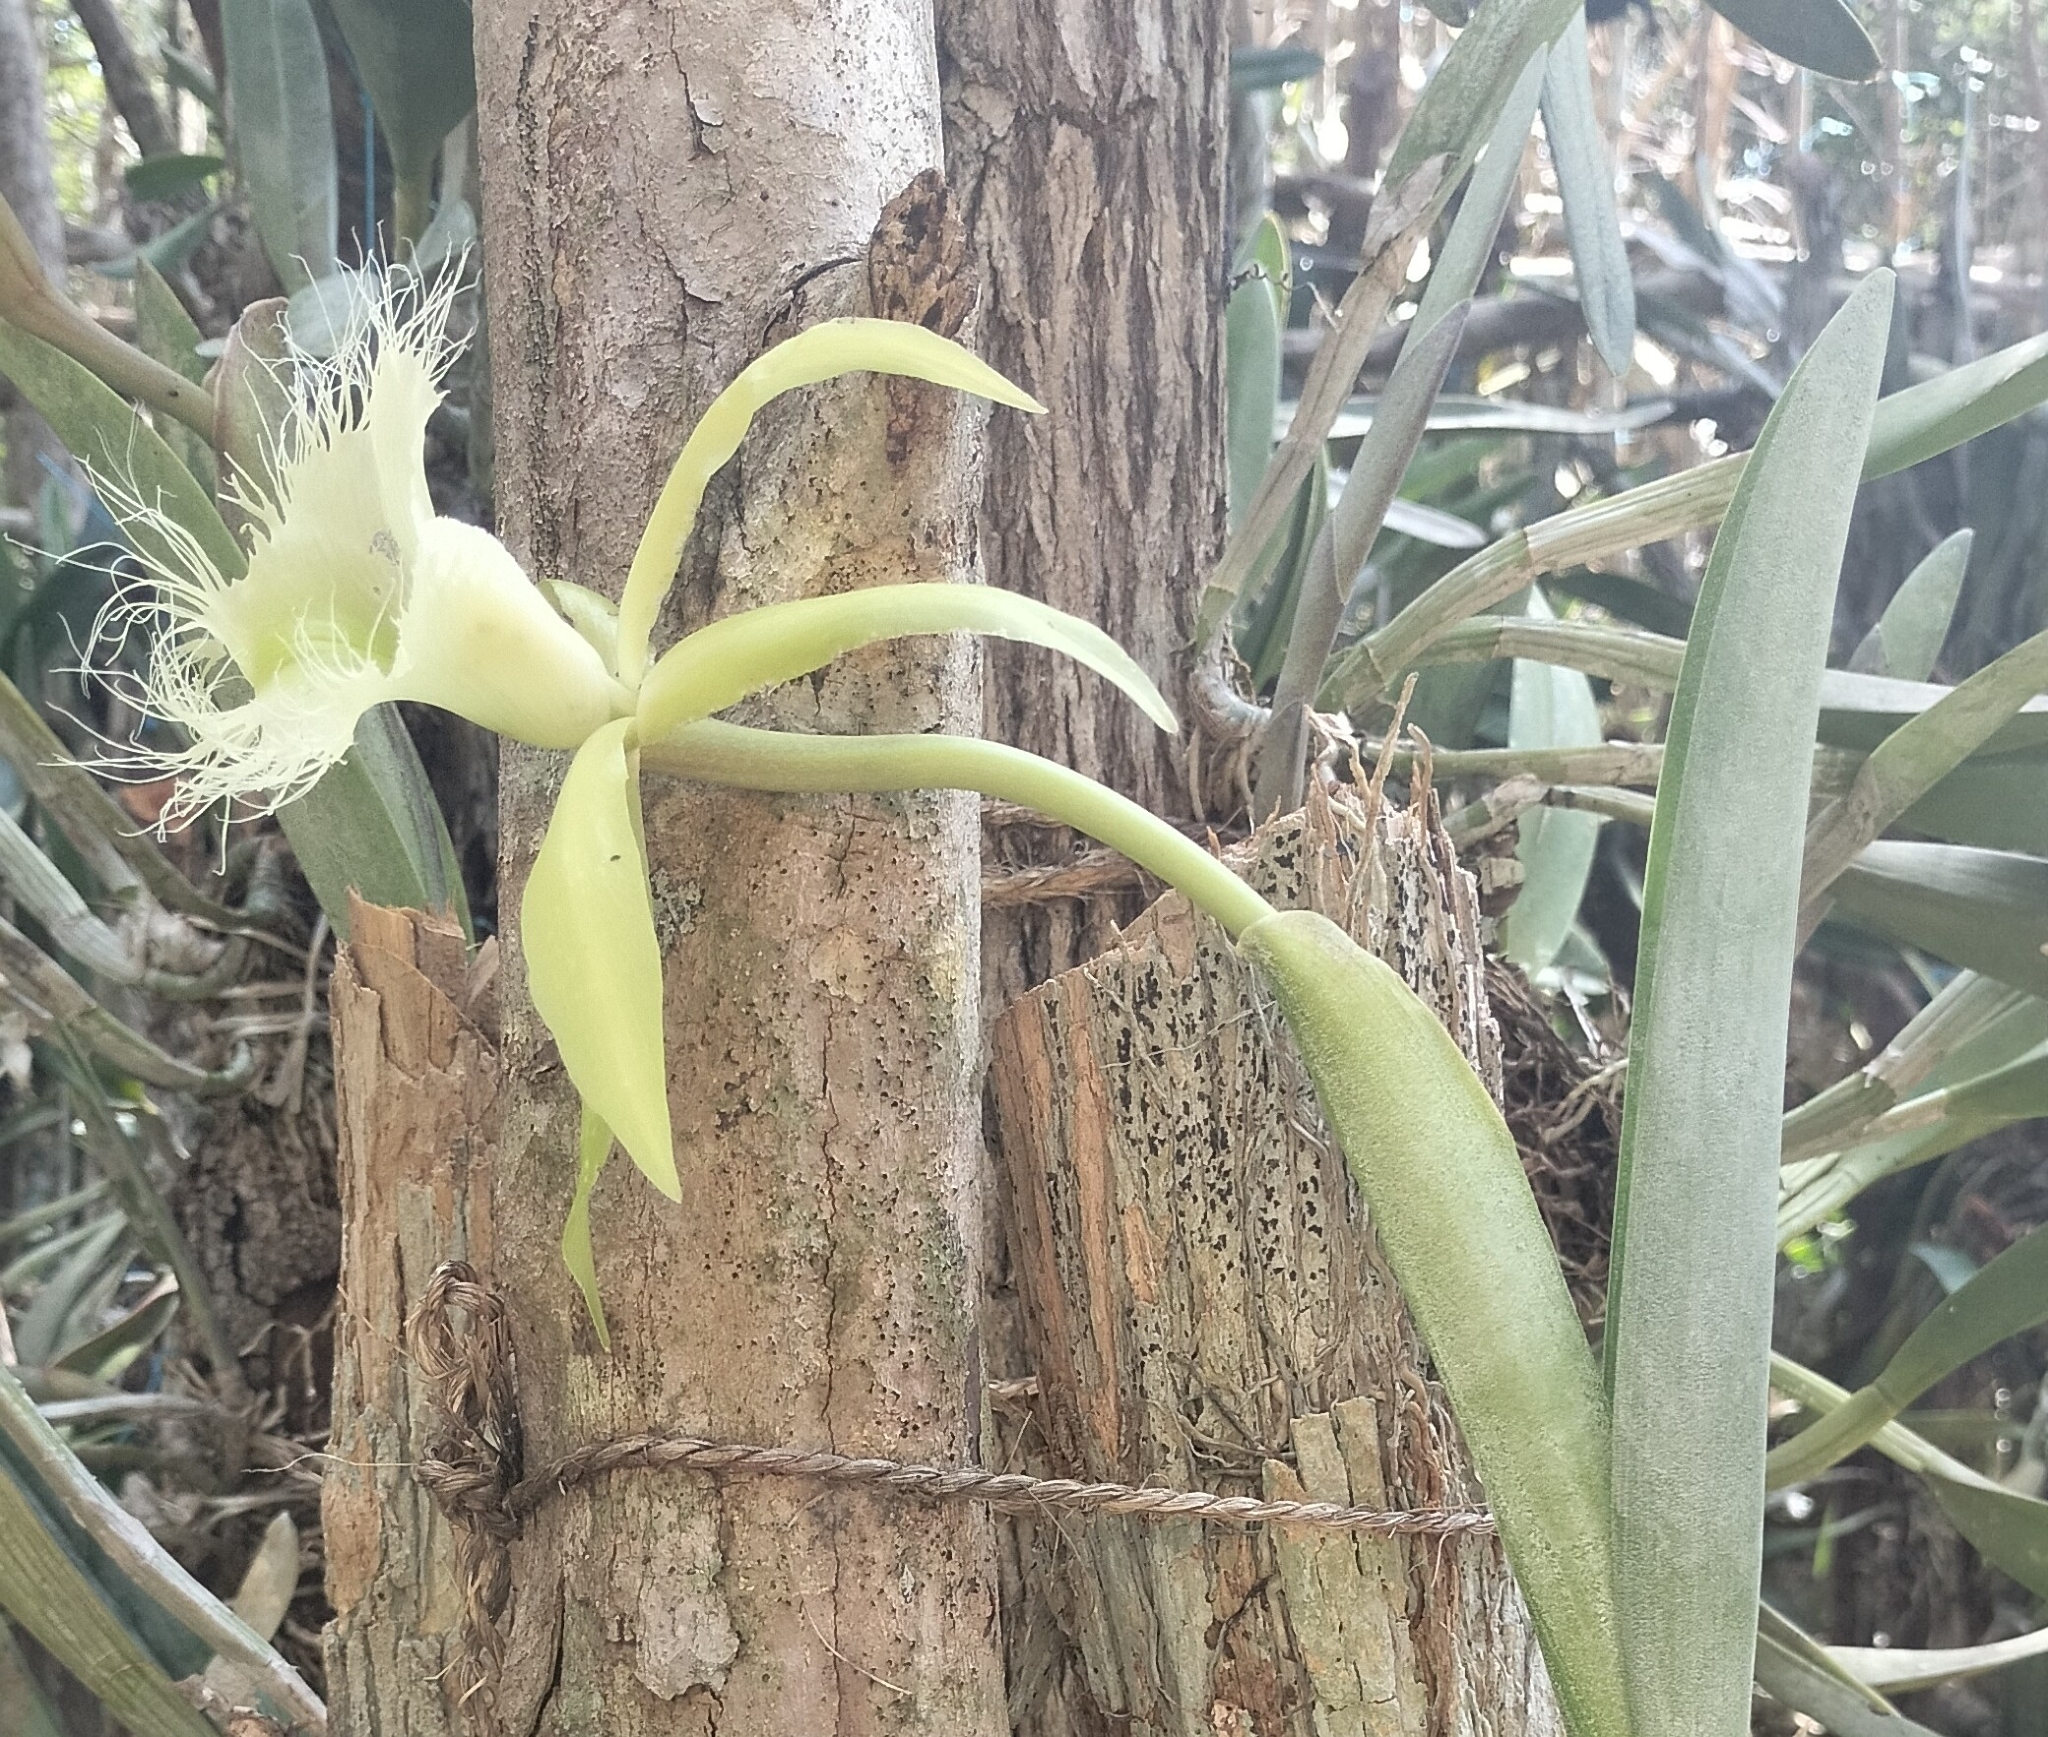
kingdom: Plantae
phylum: Tracheophyta
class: Liliopsida
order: Asparagales
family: Orchidaceae
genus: Rhyncholaelia
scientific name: Rhyncholaelia digbyana
